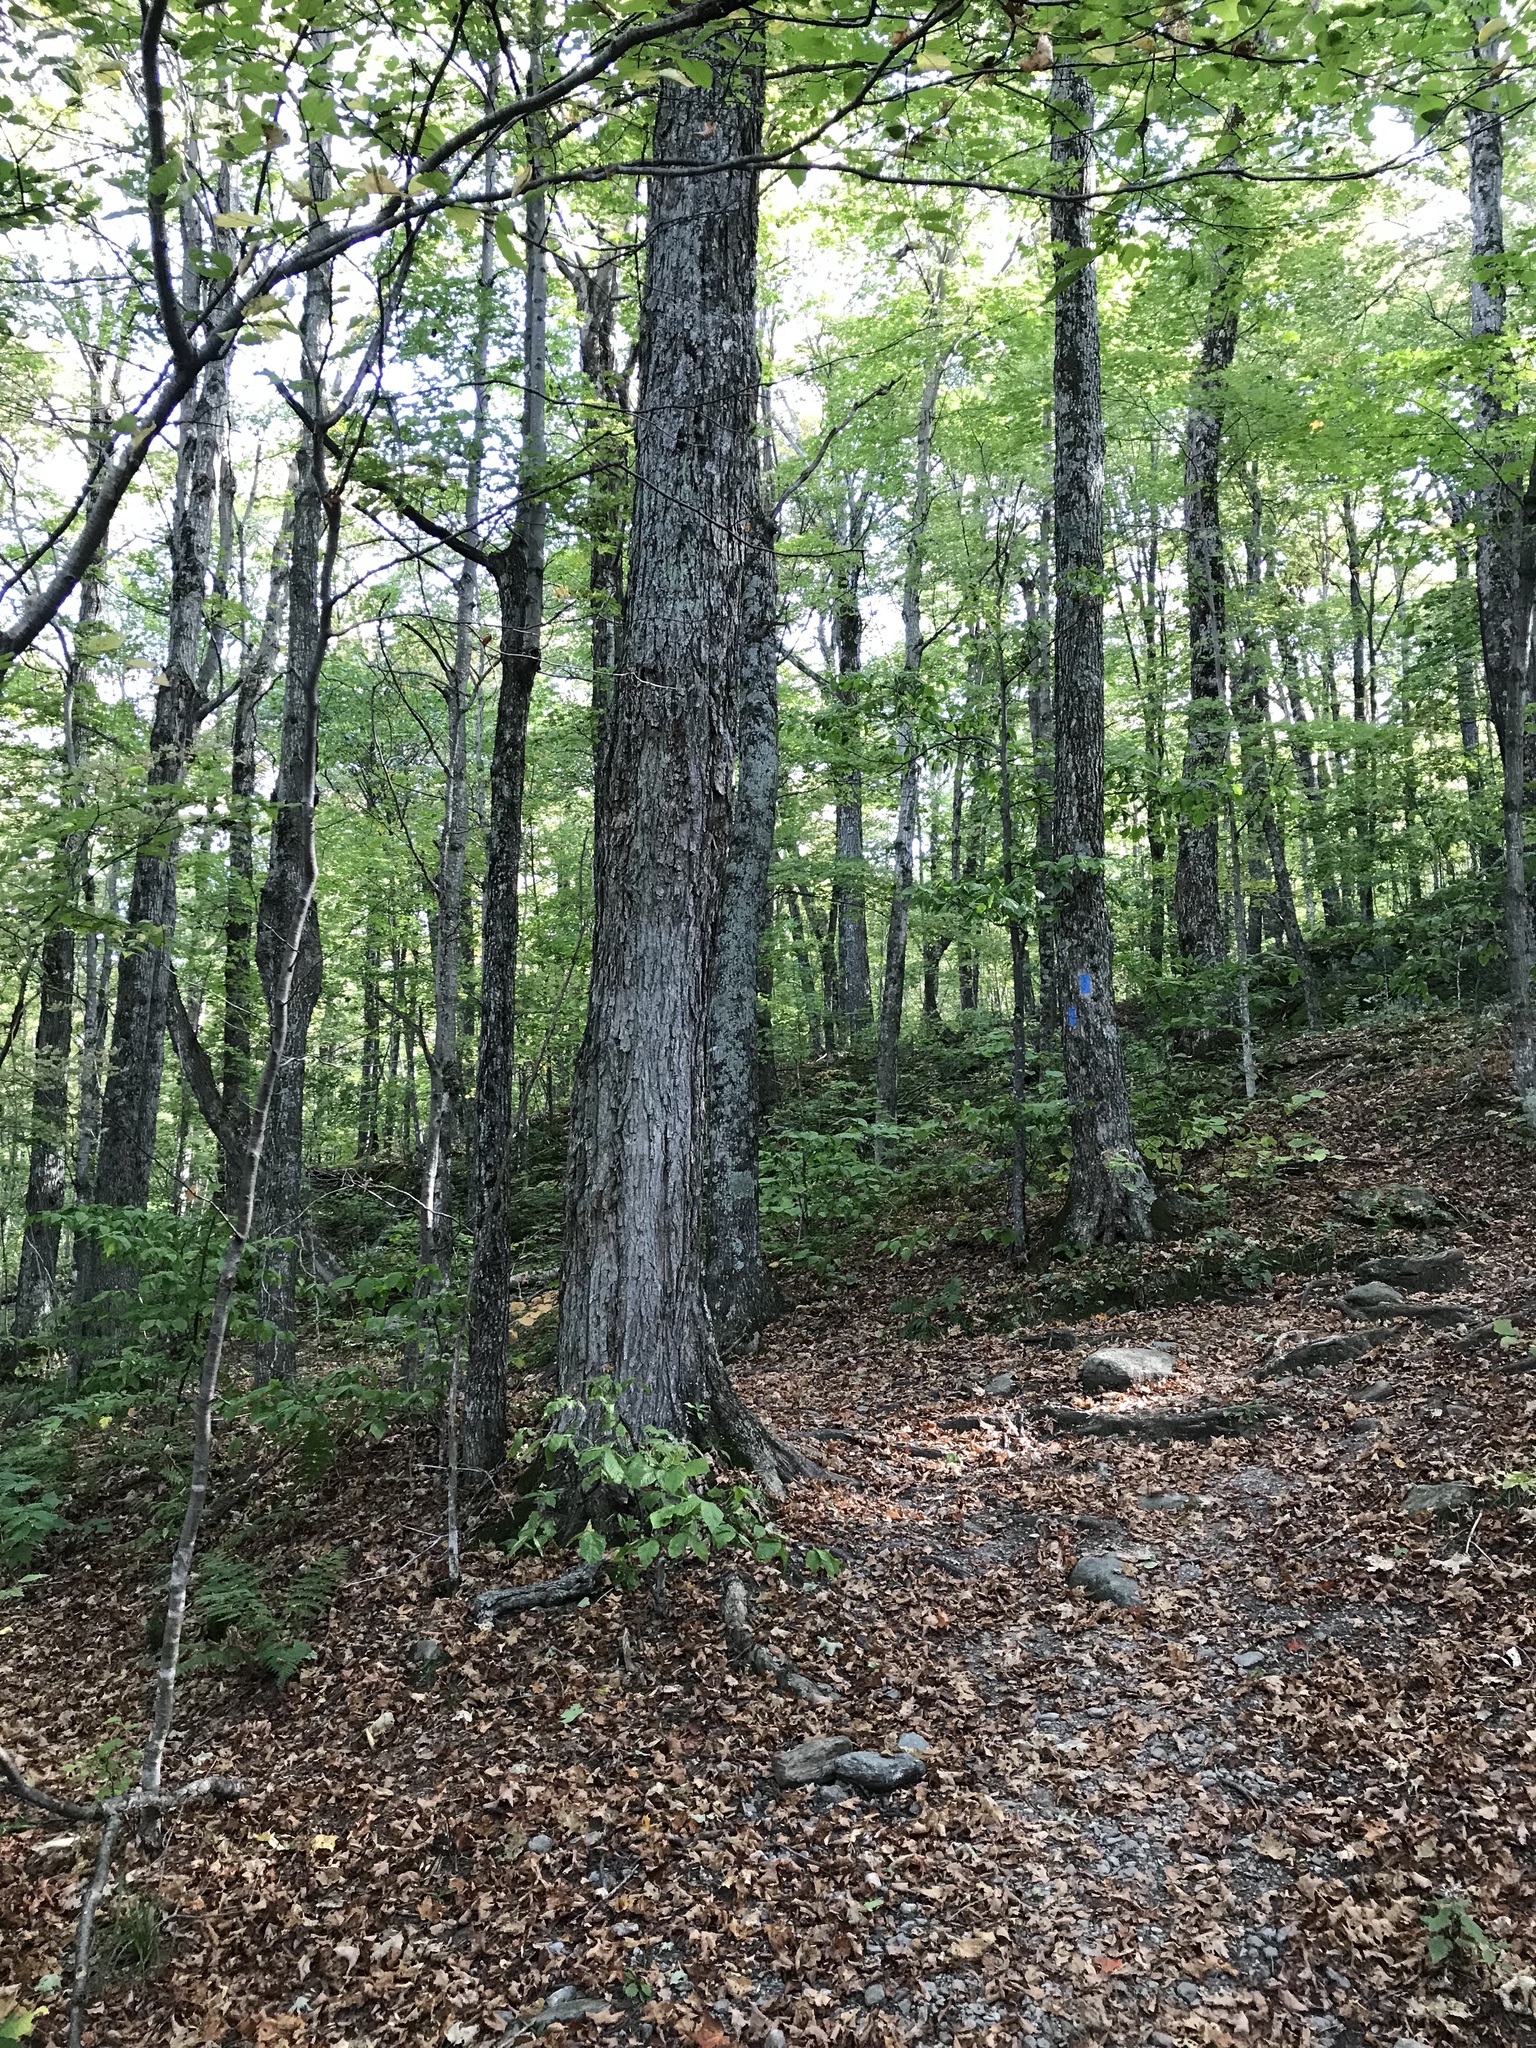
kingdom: Plantae
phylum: Tracheophyta
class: Magnoliopsida
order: Sapindales
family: Sapindaceae
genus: Acer
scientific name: Acer saccharum
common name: Sugar maple
